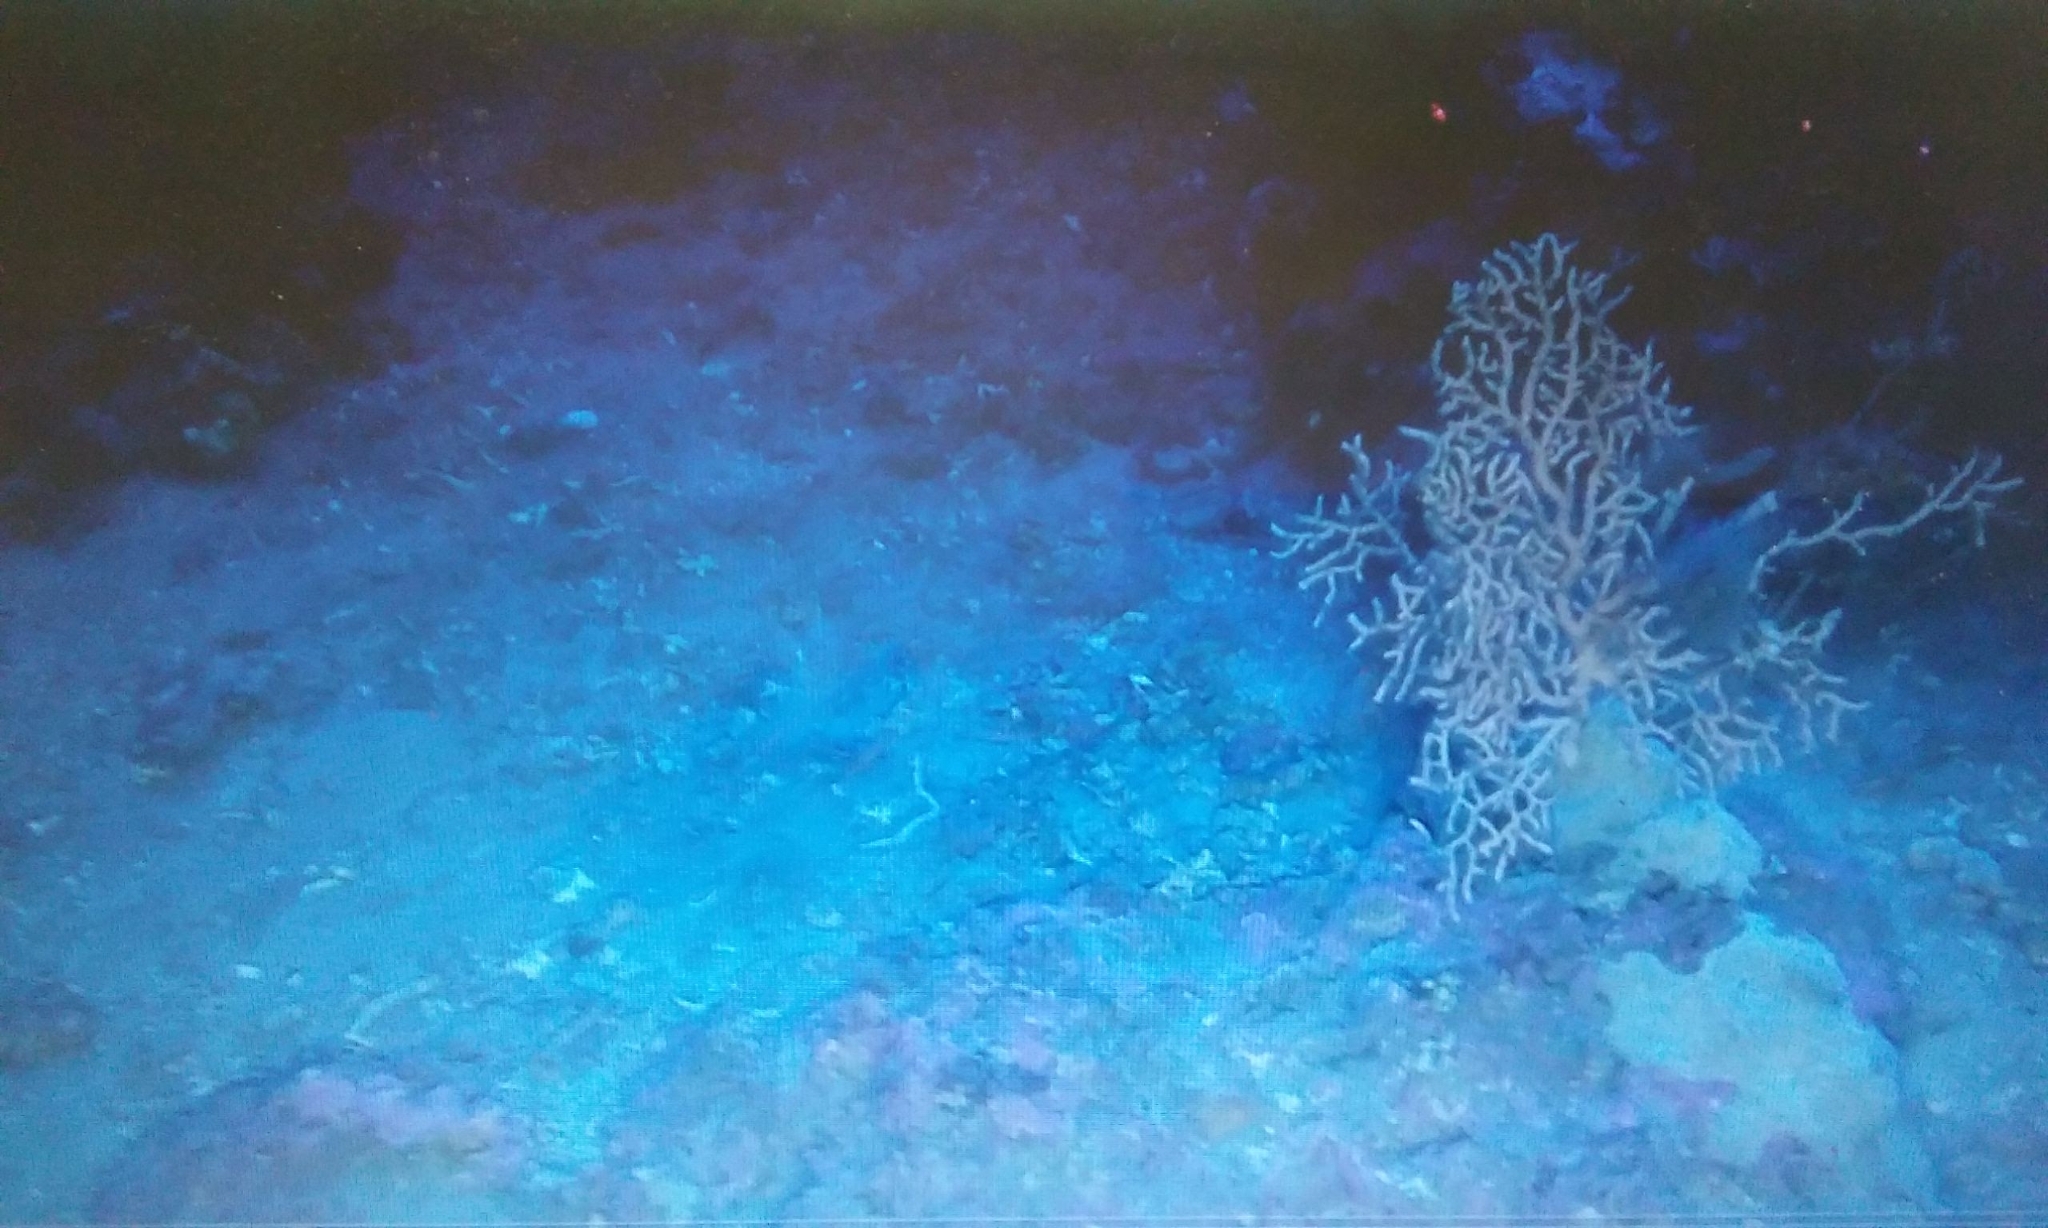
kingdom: Animalia
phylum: Cnidaria
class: Anthozoa
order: Malacalcyonacea
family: Eunicellidae
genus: Eunicella
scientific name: Eunicella cavolini
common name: Yellow gorgonian
